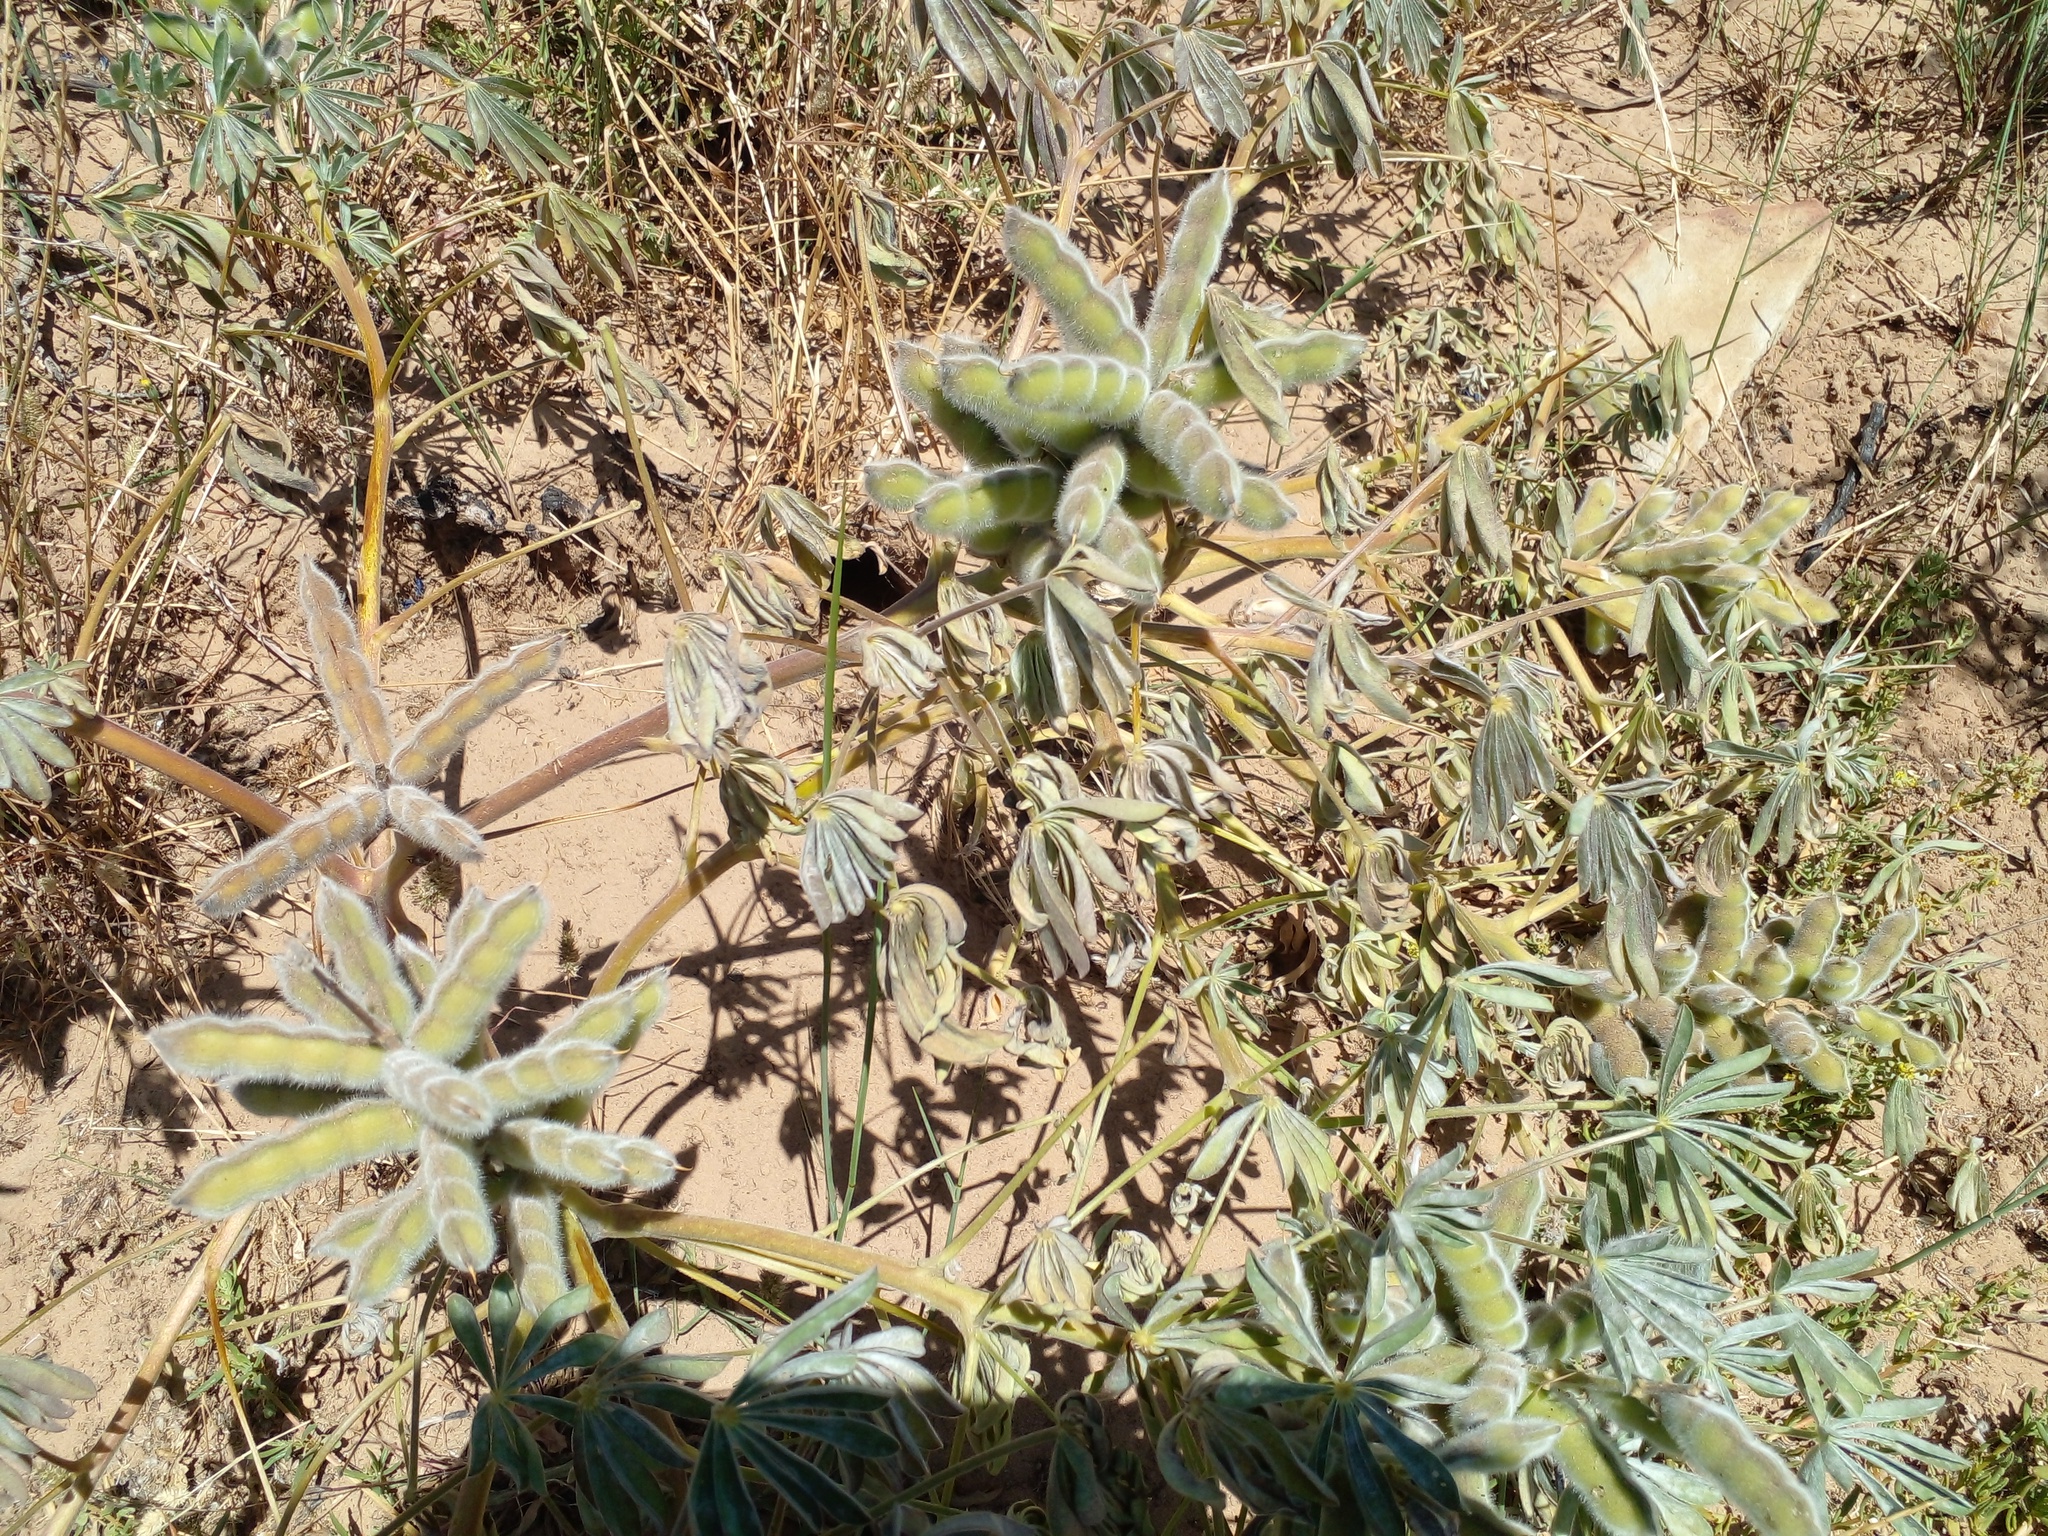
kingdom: Plantae
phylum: Tracheophyta
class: Magnoliopsida
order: Fabales
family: Fabaceae
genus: Lupinus
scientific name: Lupinus cosentinii
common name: Hairy blue lupin
